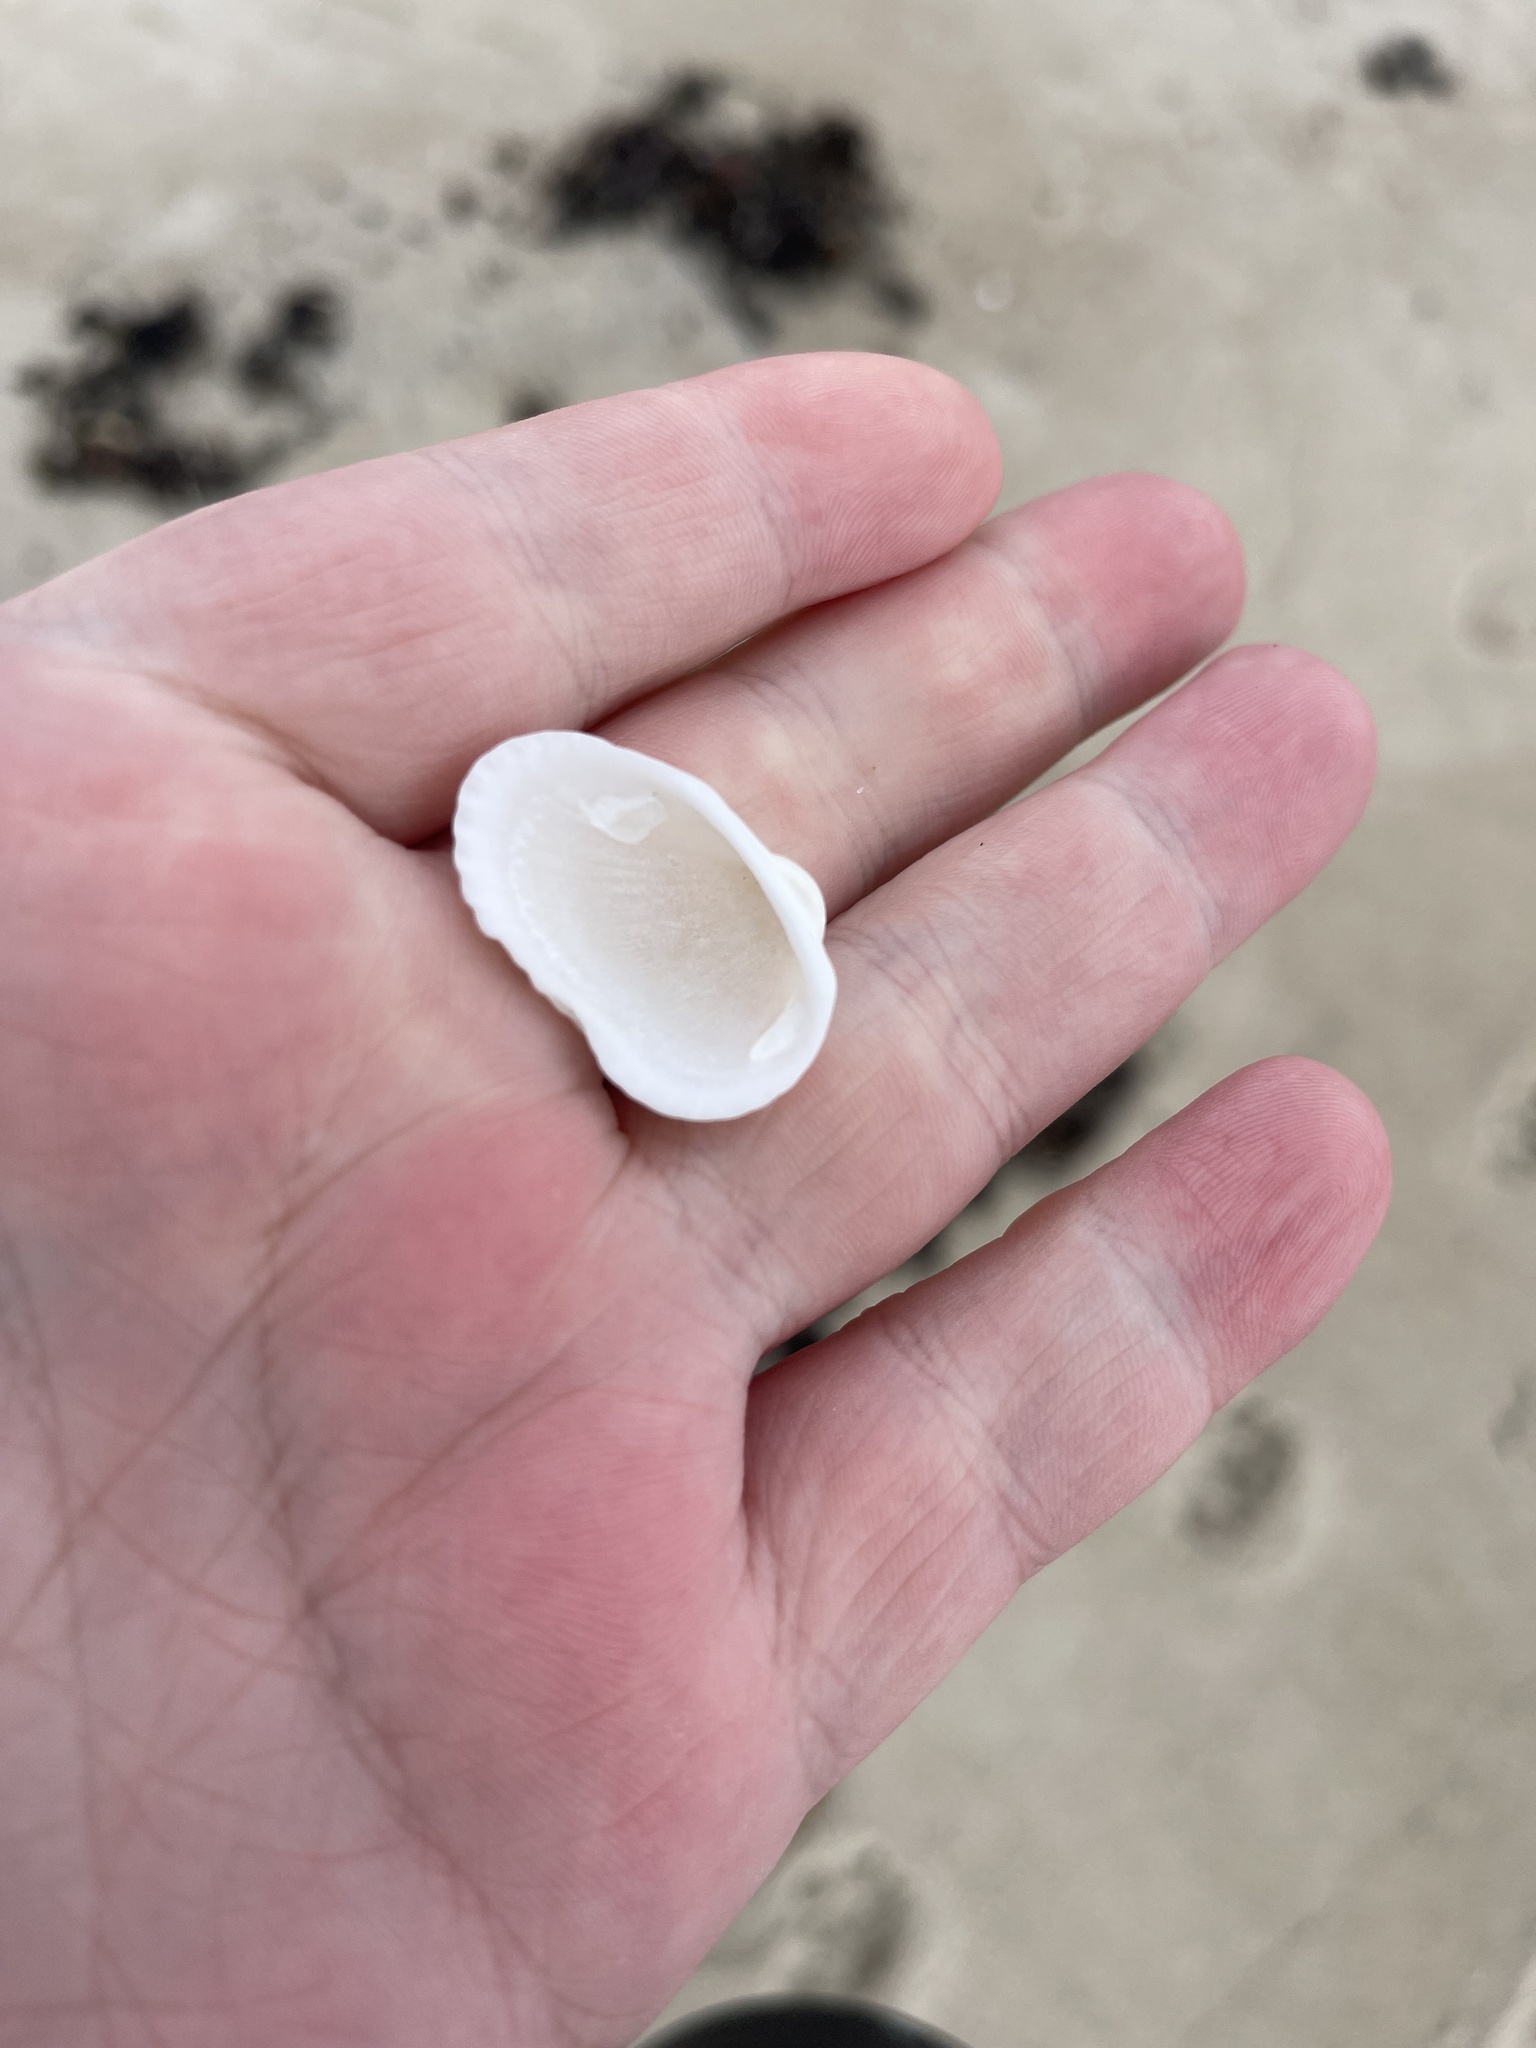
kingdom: Animalia
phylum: Mollusca
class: Bivalvia
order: Arcida
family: Arcidae
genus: Anadara
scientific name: Anadara transversa
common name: Transverse ark
